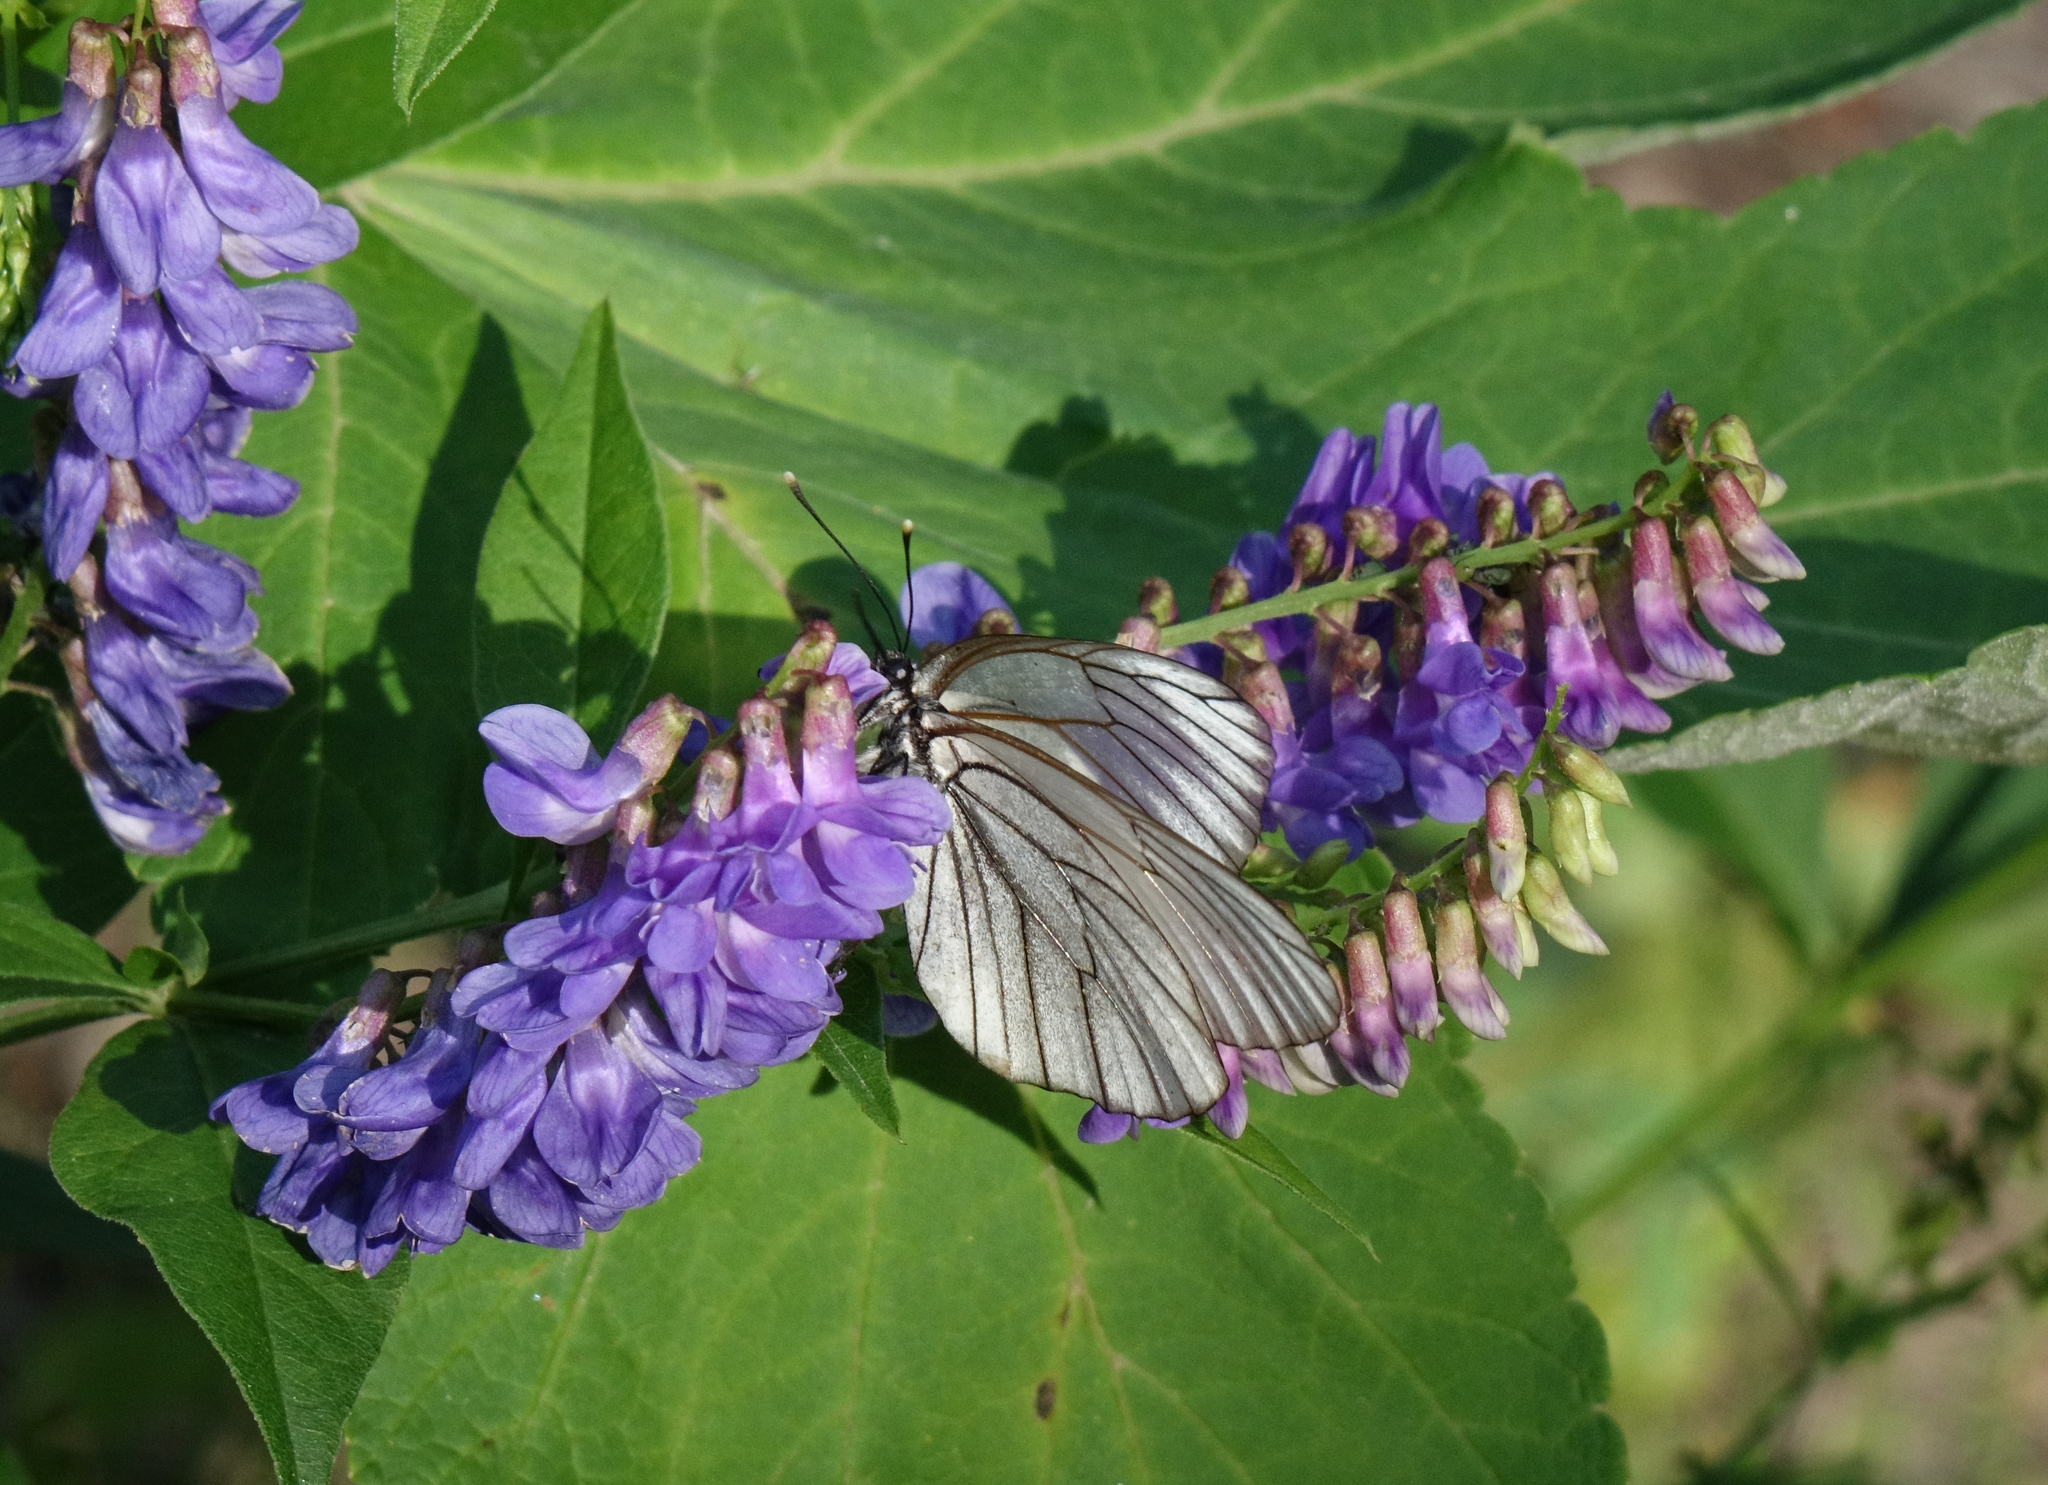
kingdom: Animalia
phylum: Arthropoda
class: Insecta
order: Lepidoptera
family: Pieridae
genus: Aporia
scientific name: Aporia crataegi
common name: Black-veined white
